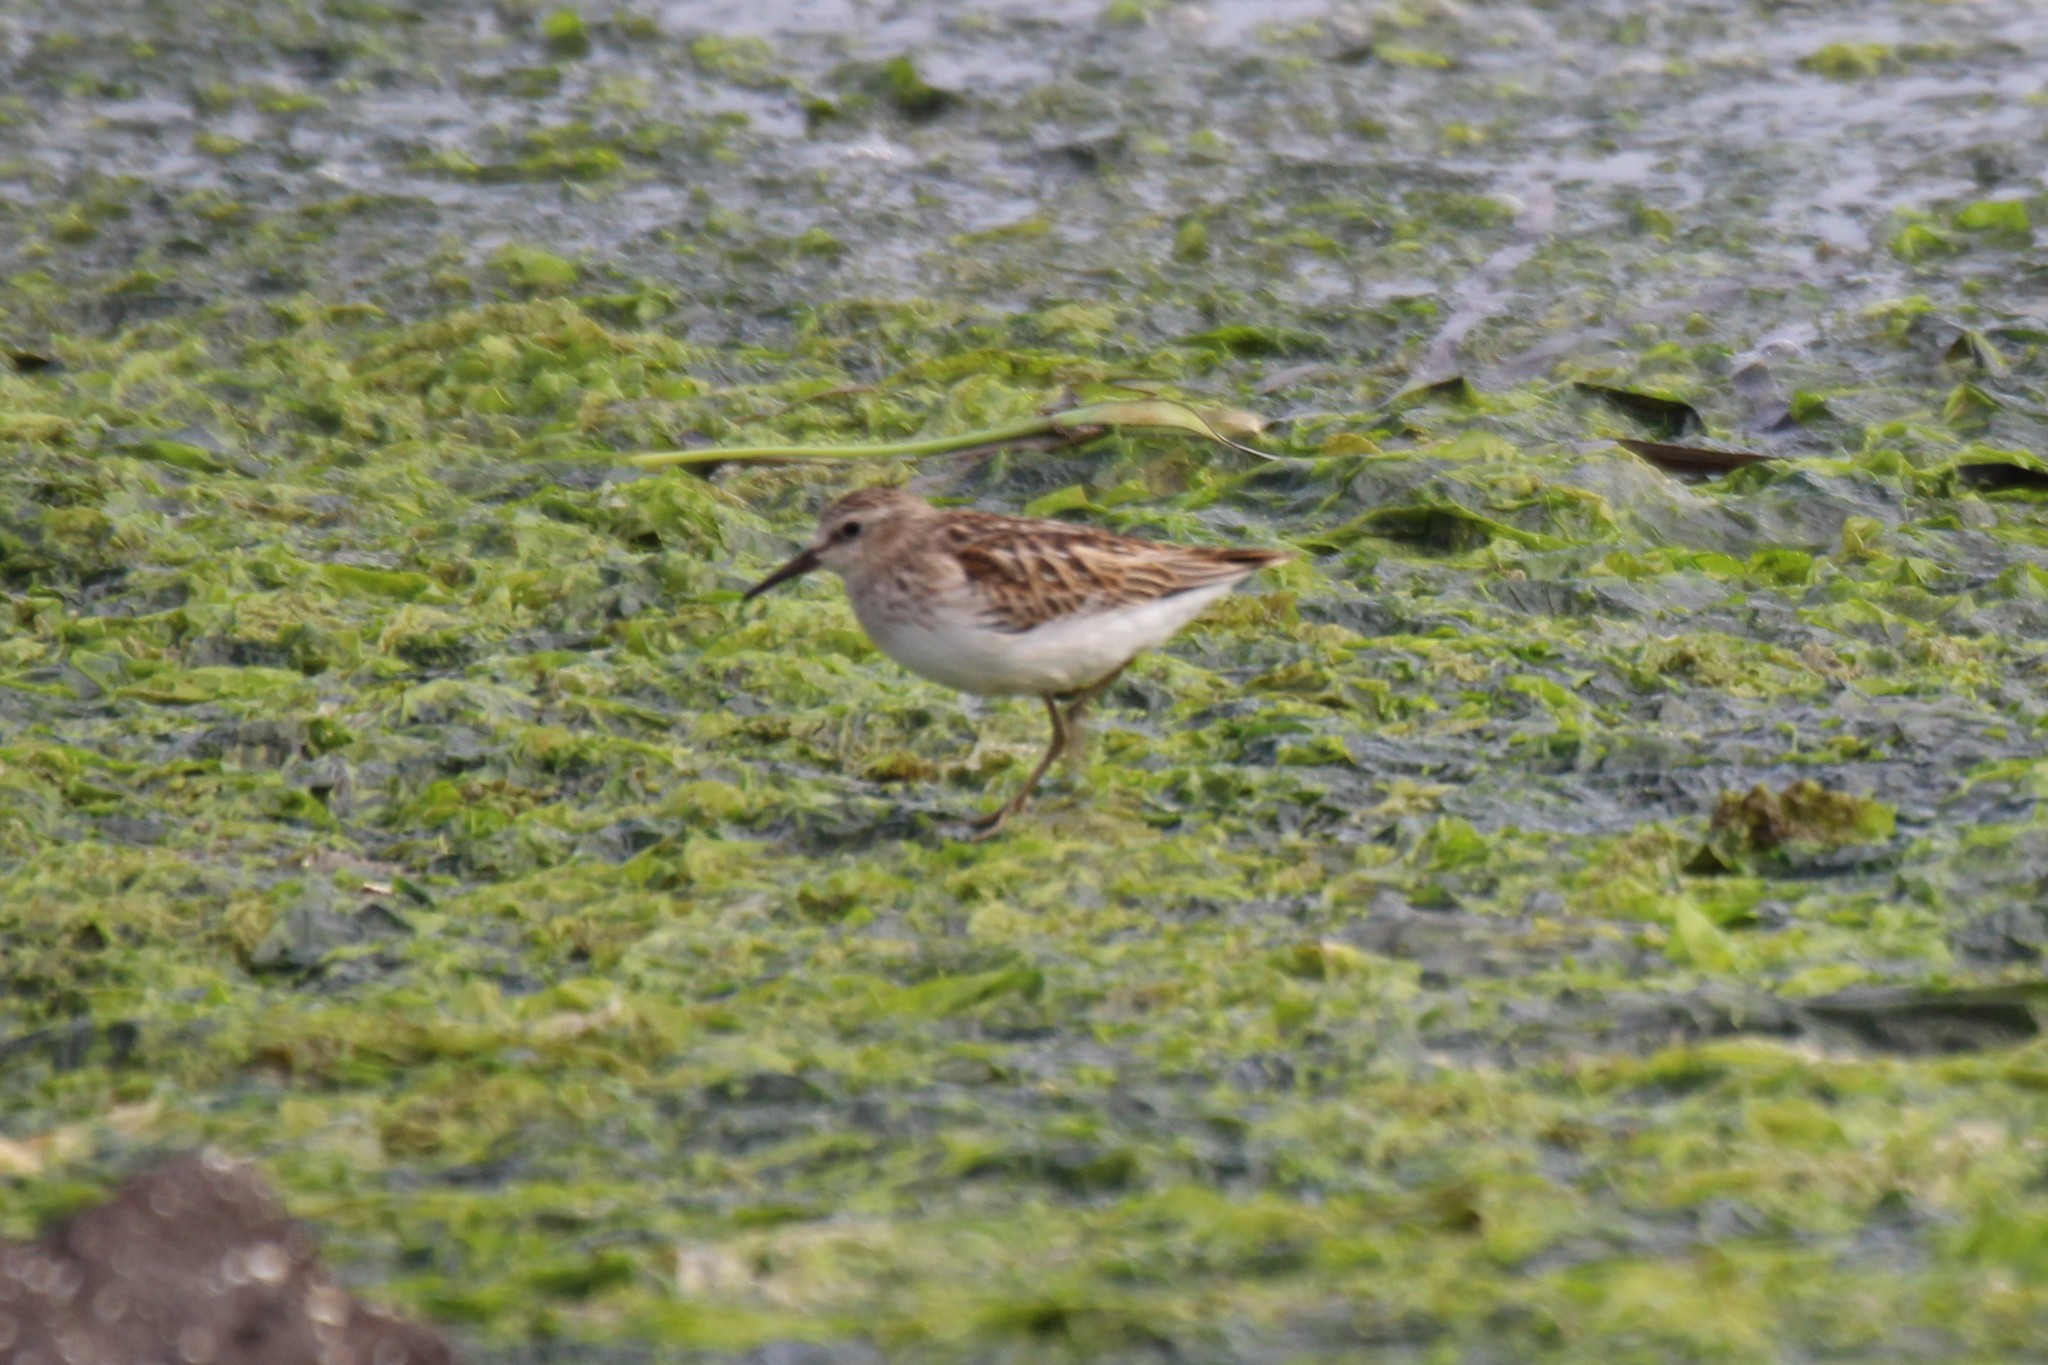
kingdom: Animalia
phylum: Chordata
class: Aves
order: Charadriiformes
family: Scolopacidae
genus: Calidris
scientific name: Calidris minutilla
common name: Least sandpiper
